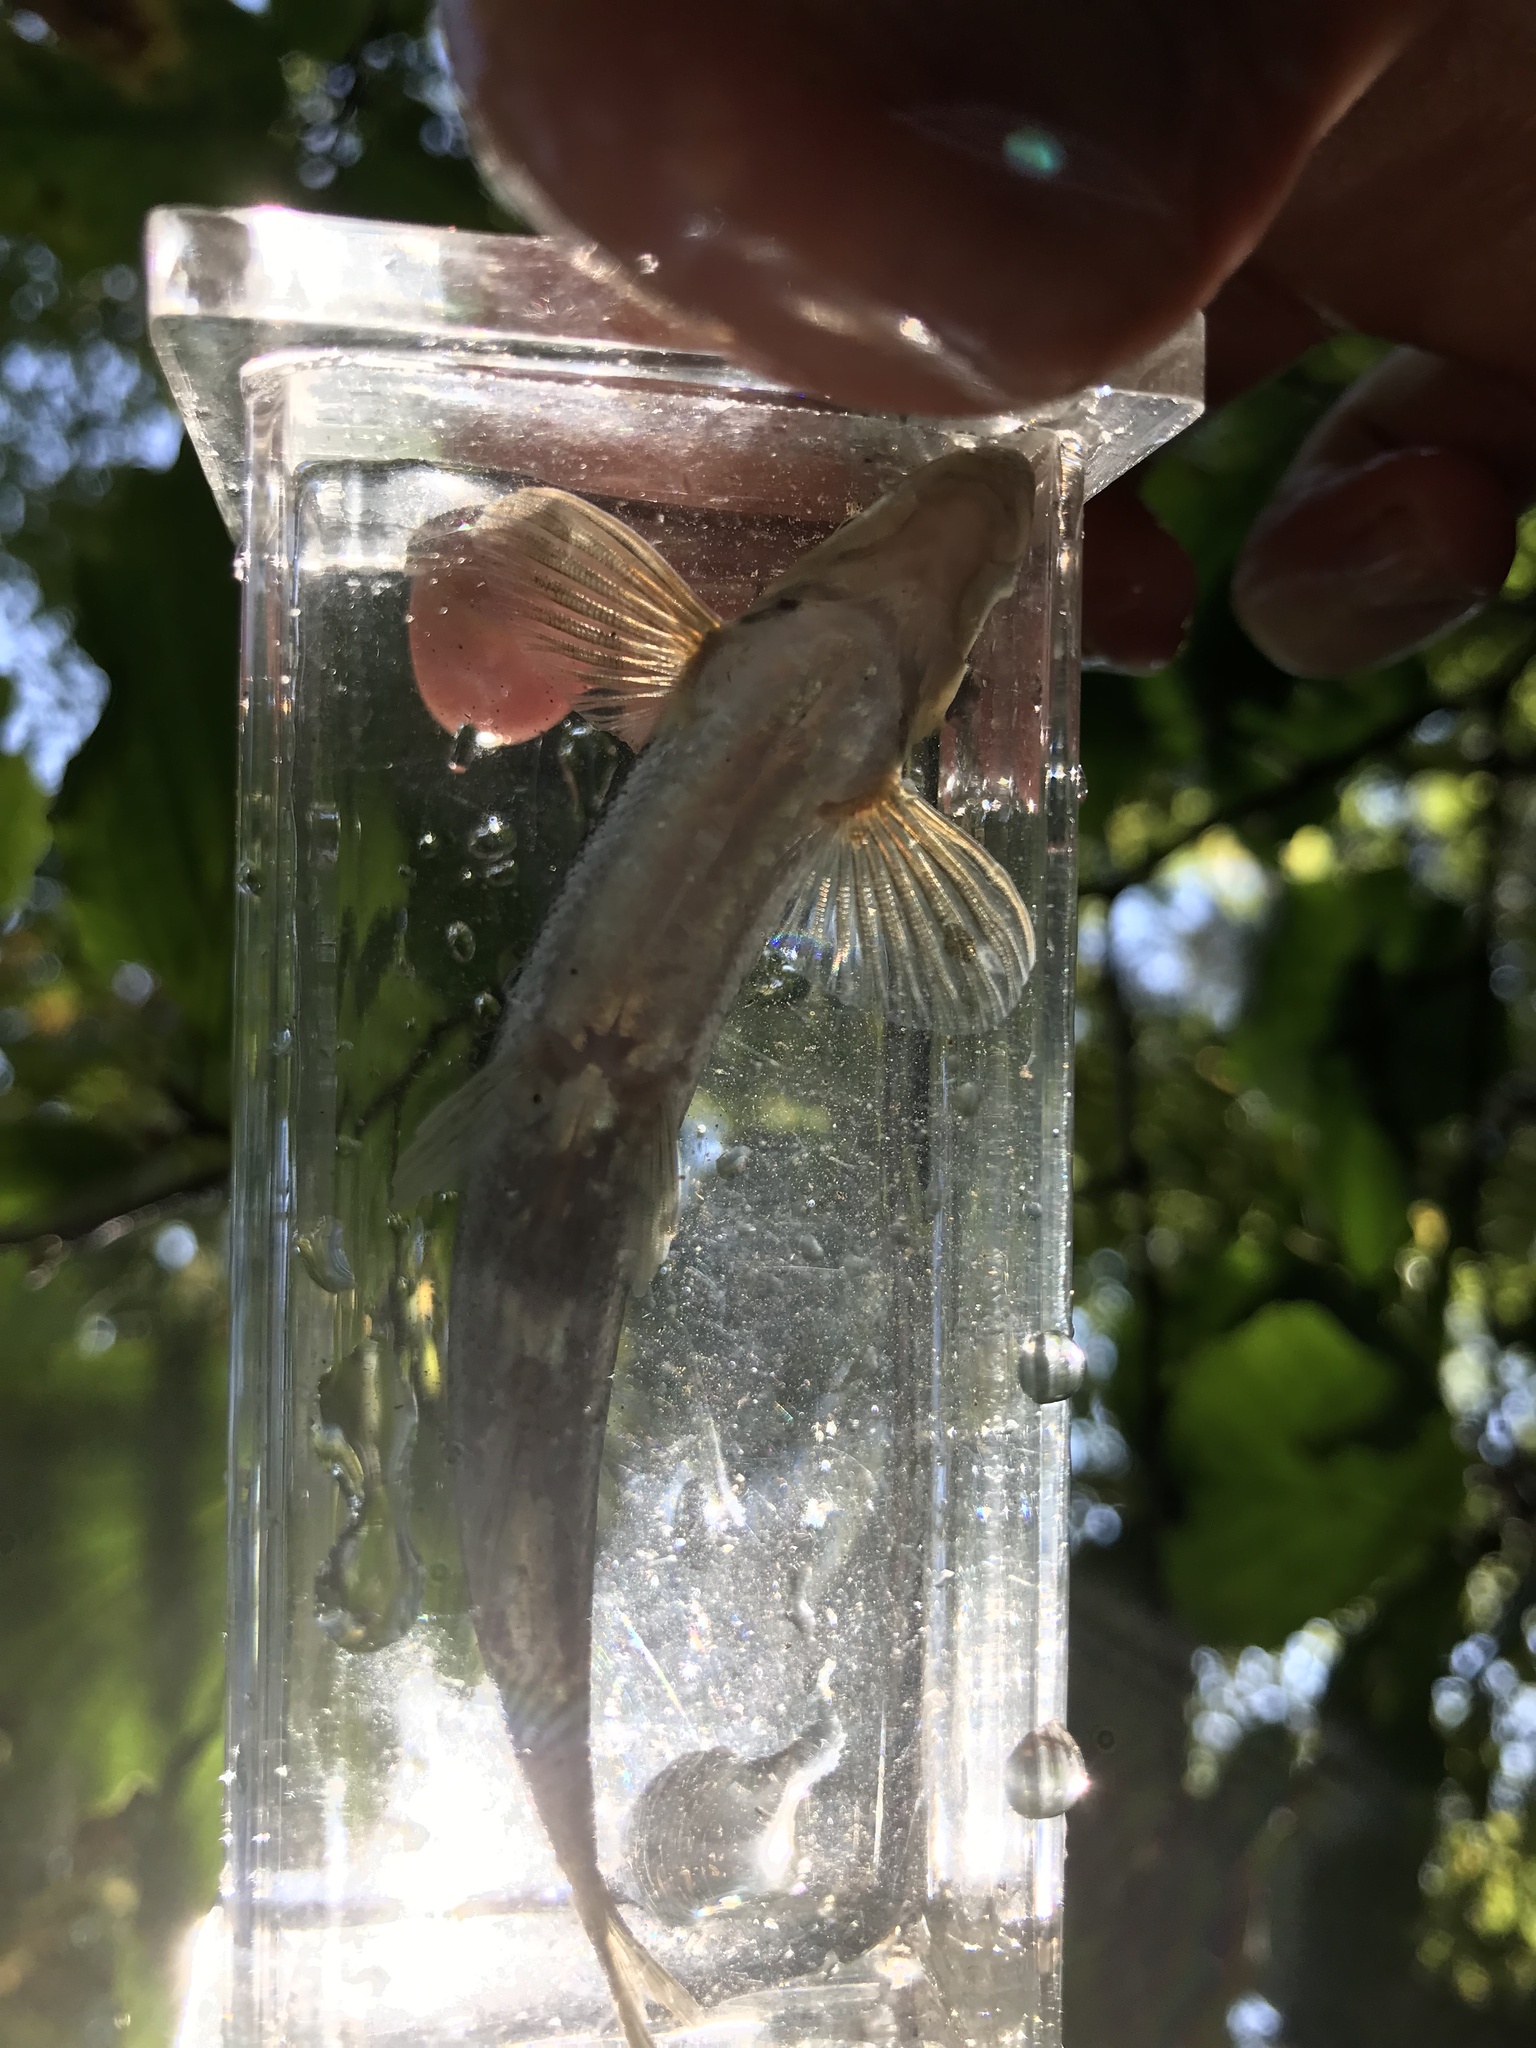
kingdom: Animalia
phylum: Chordata
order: Cypriniformes
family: Cyprinidae
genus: Phenacobius
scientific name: Phenacobius crassilabrum
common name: Fatlips minnow
